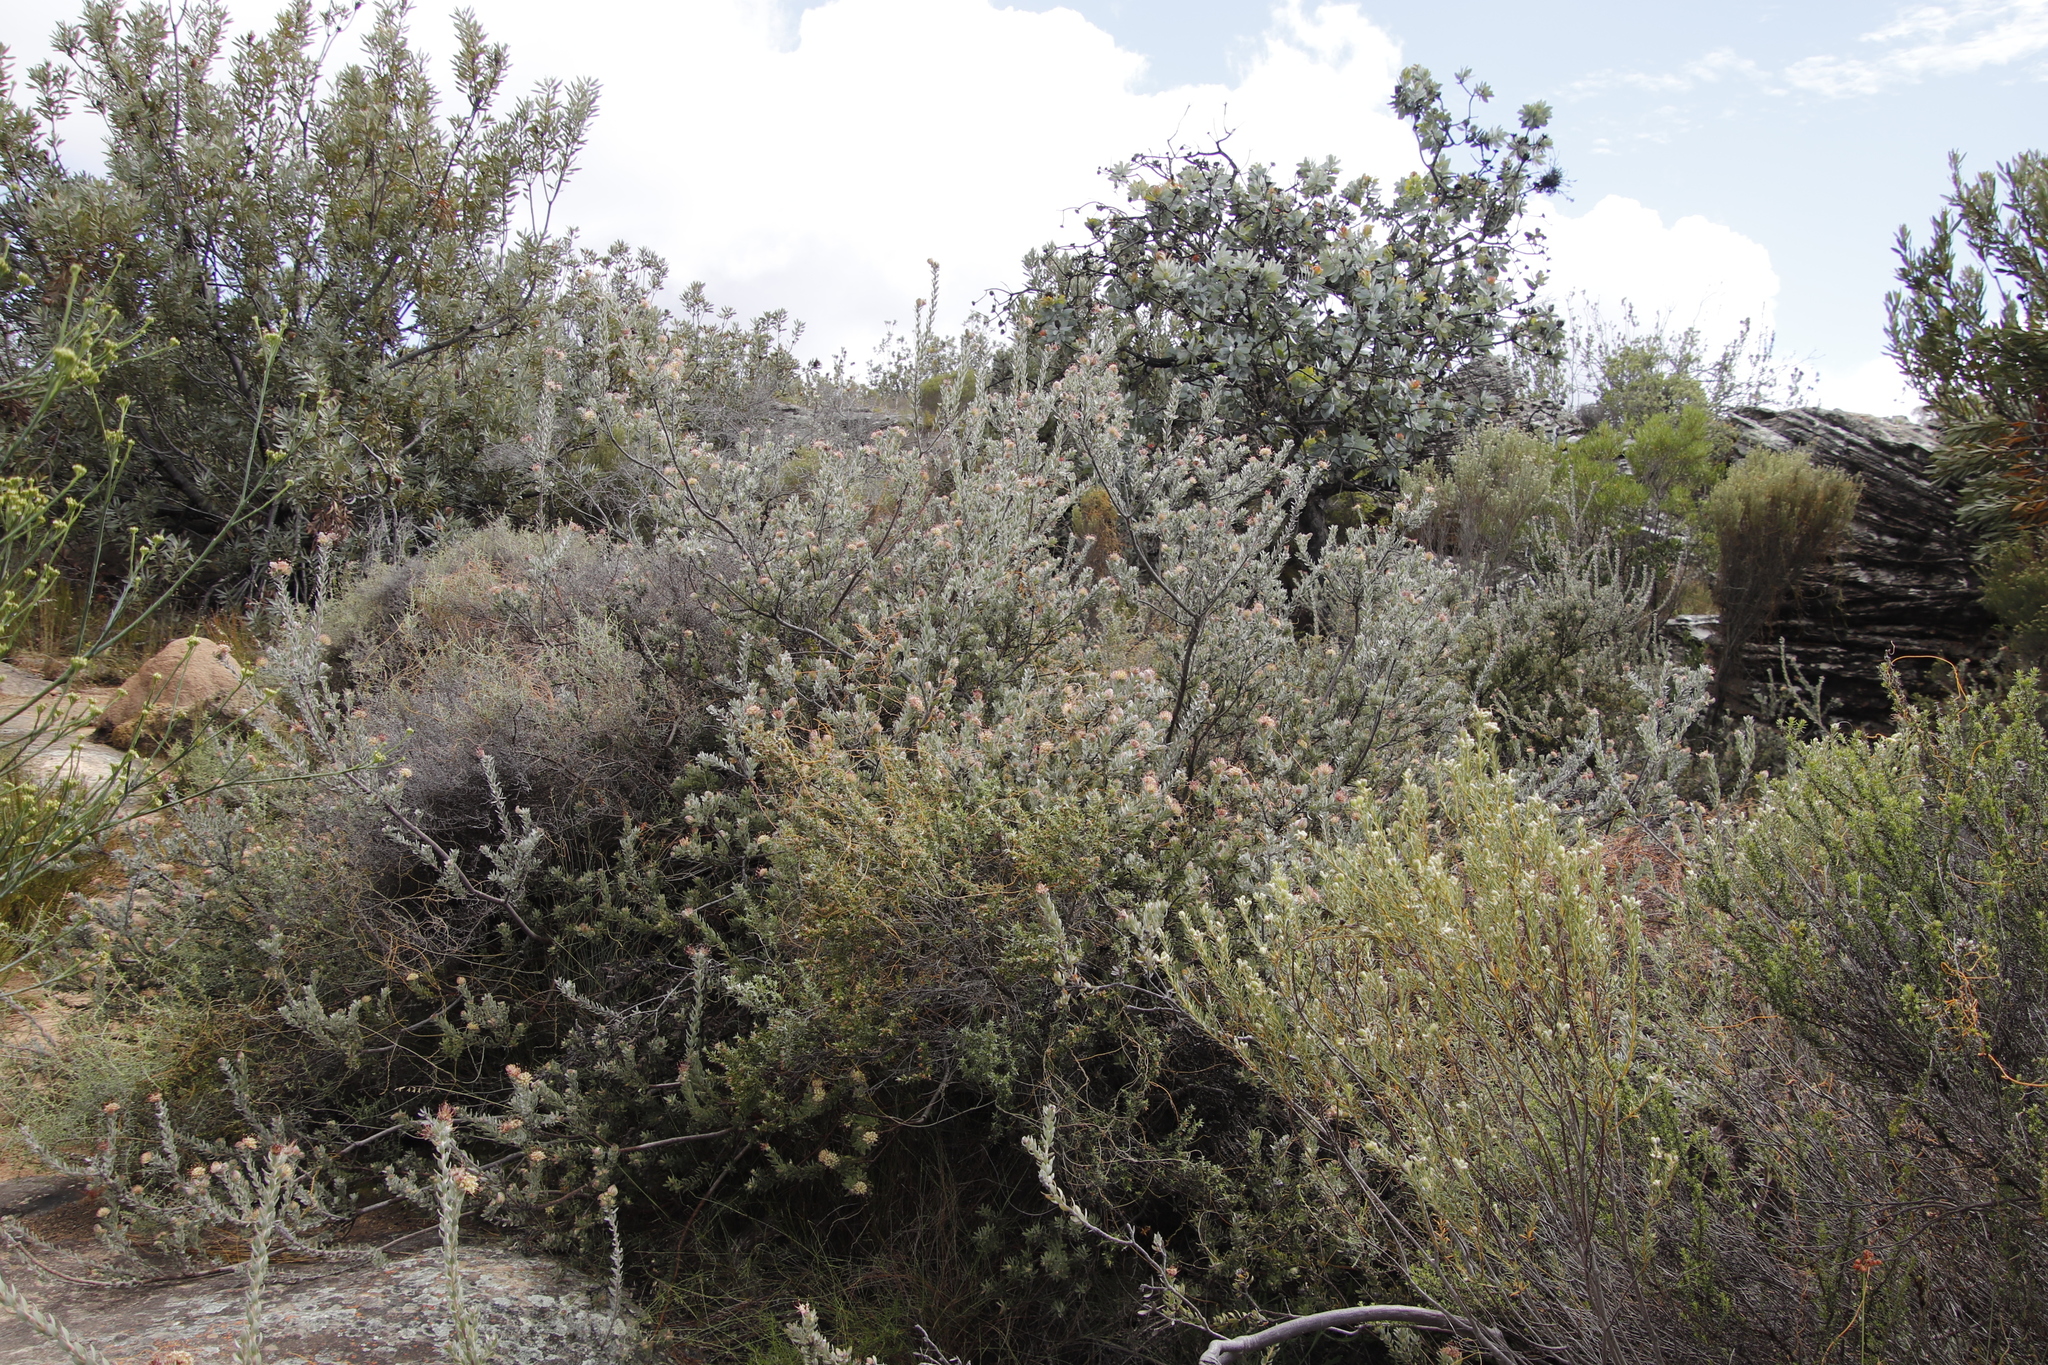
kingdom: Plantae
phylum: Tracheophyta
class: Magnoliopsida
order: Proteales
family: Proteaceae
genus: Leucospermum
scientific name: Leucospermum calligerum
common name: Arid pincushion
